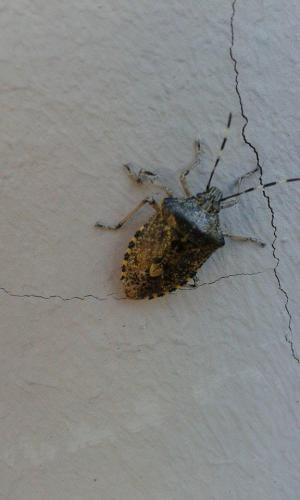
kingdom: Animalia
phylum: Arthropoda
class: Insecta
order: Hemiptera
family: Pentatomidae
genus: Rhaphigaster
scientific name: Rhaphigaster nebulosa
